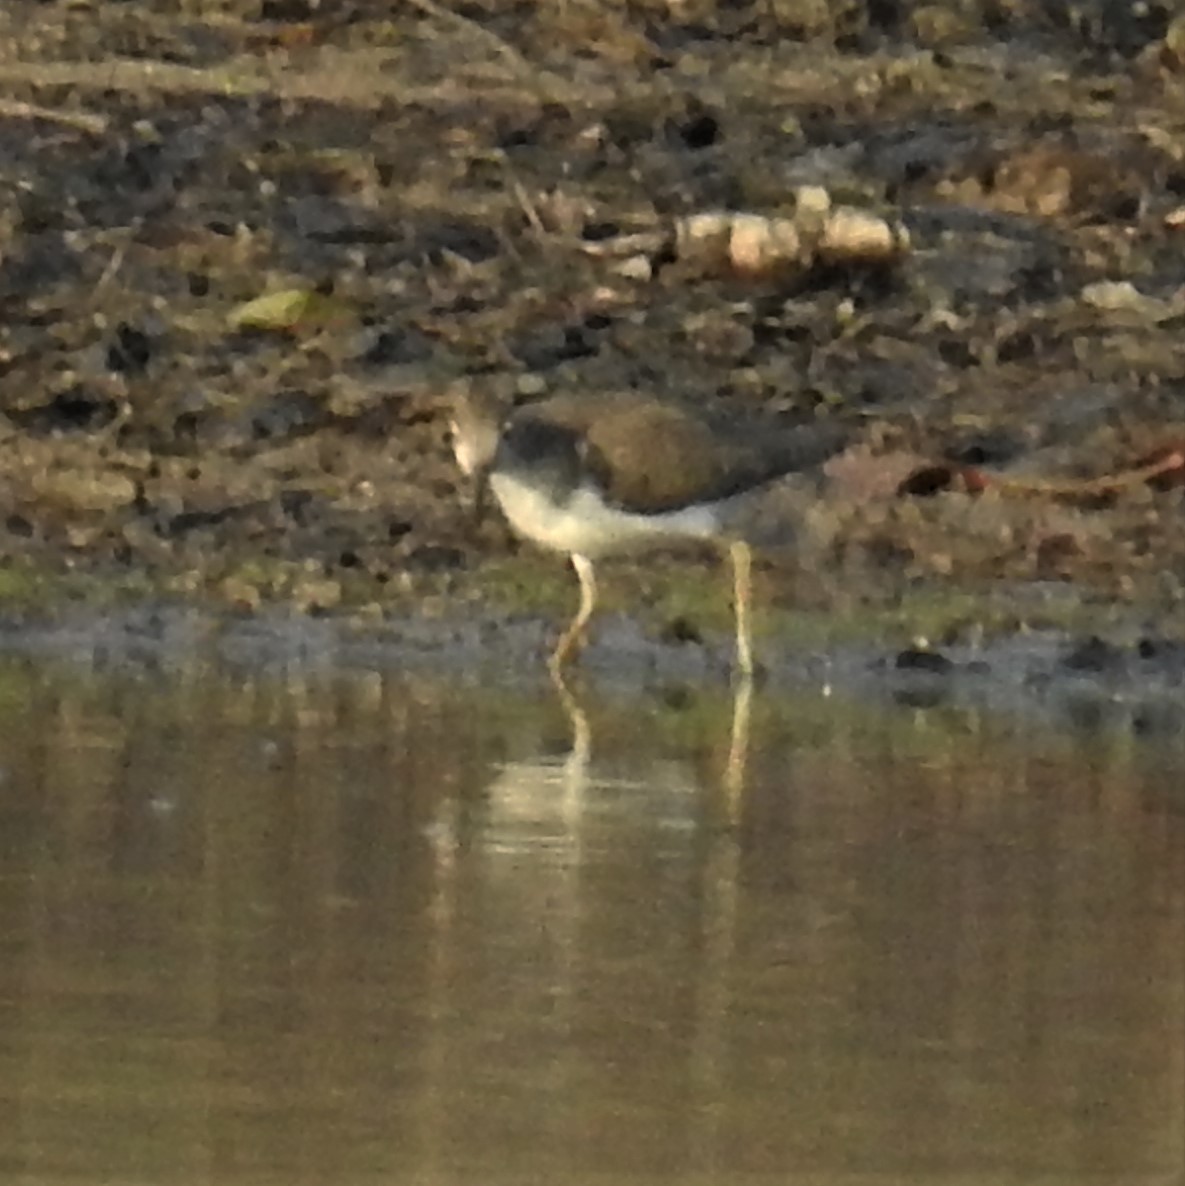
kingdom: Animalia
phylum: Chordata
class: Aves
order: Charadriiformes
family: Scolopacidae
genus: Actitis
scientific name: Actitis macularius
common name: Spotted sandpiper
